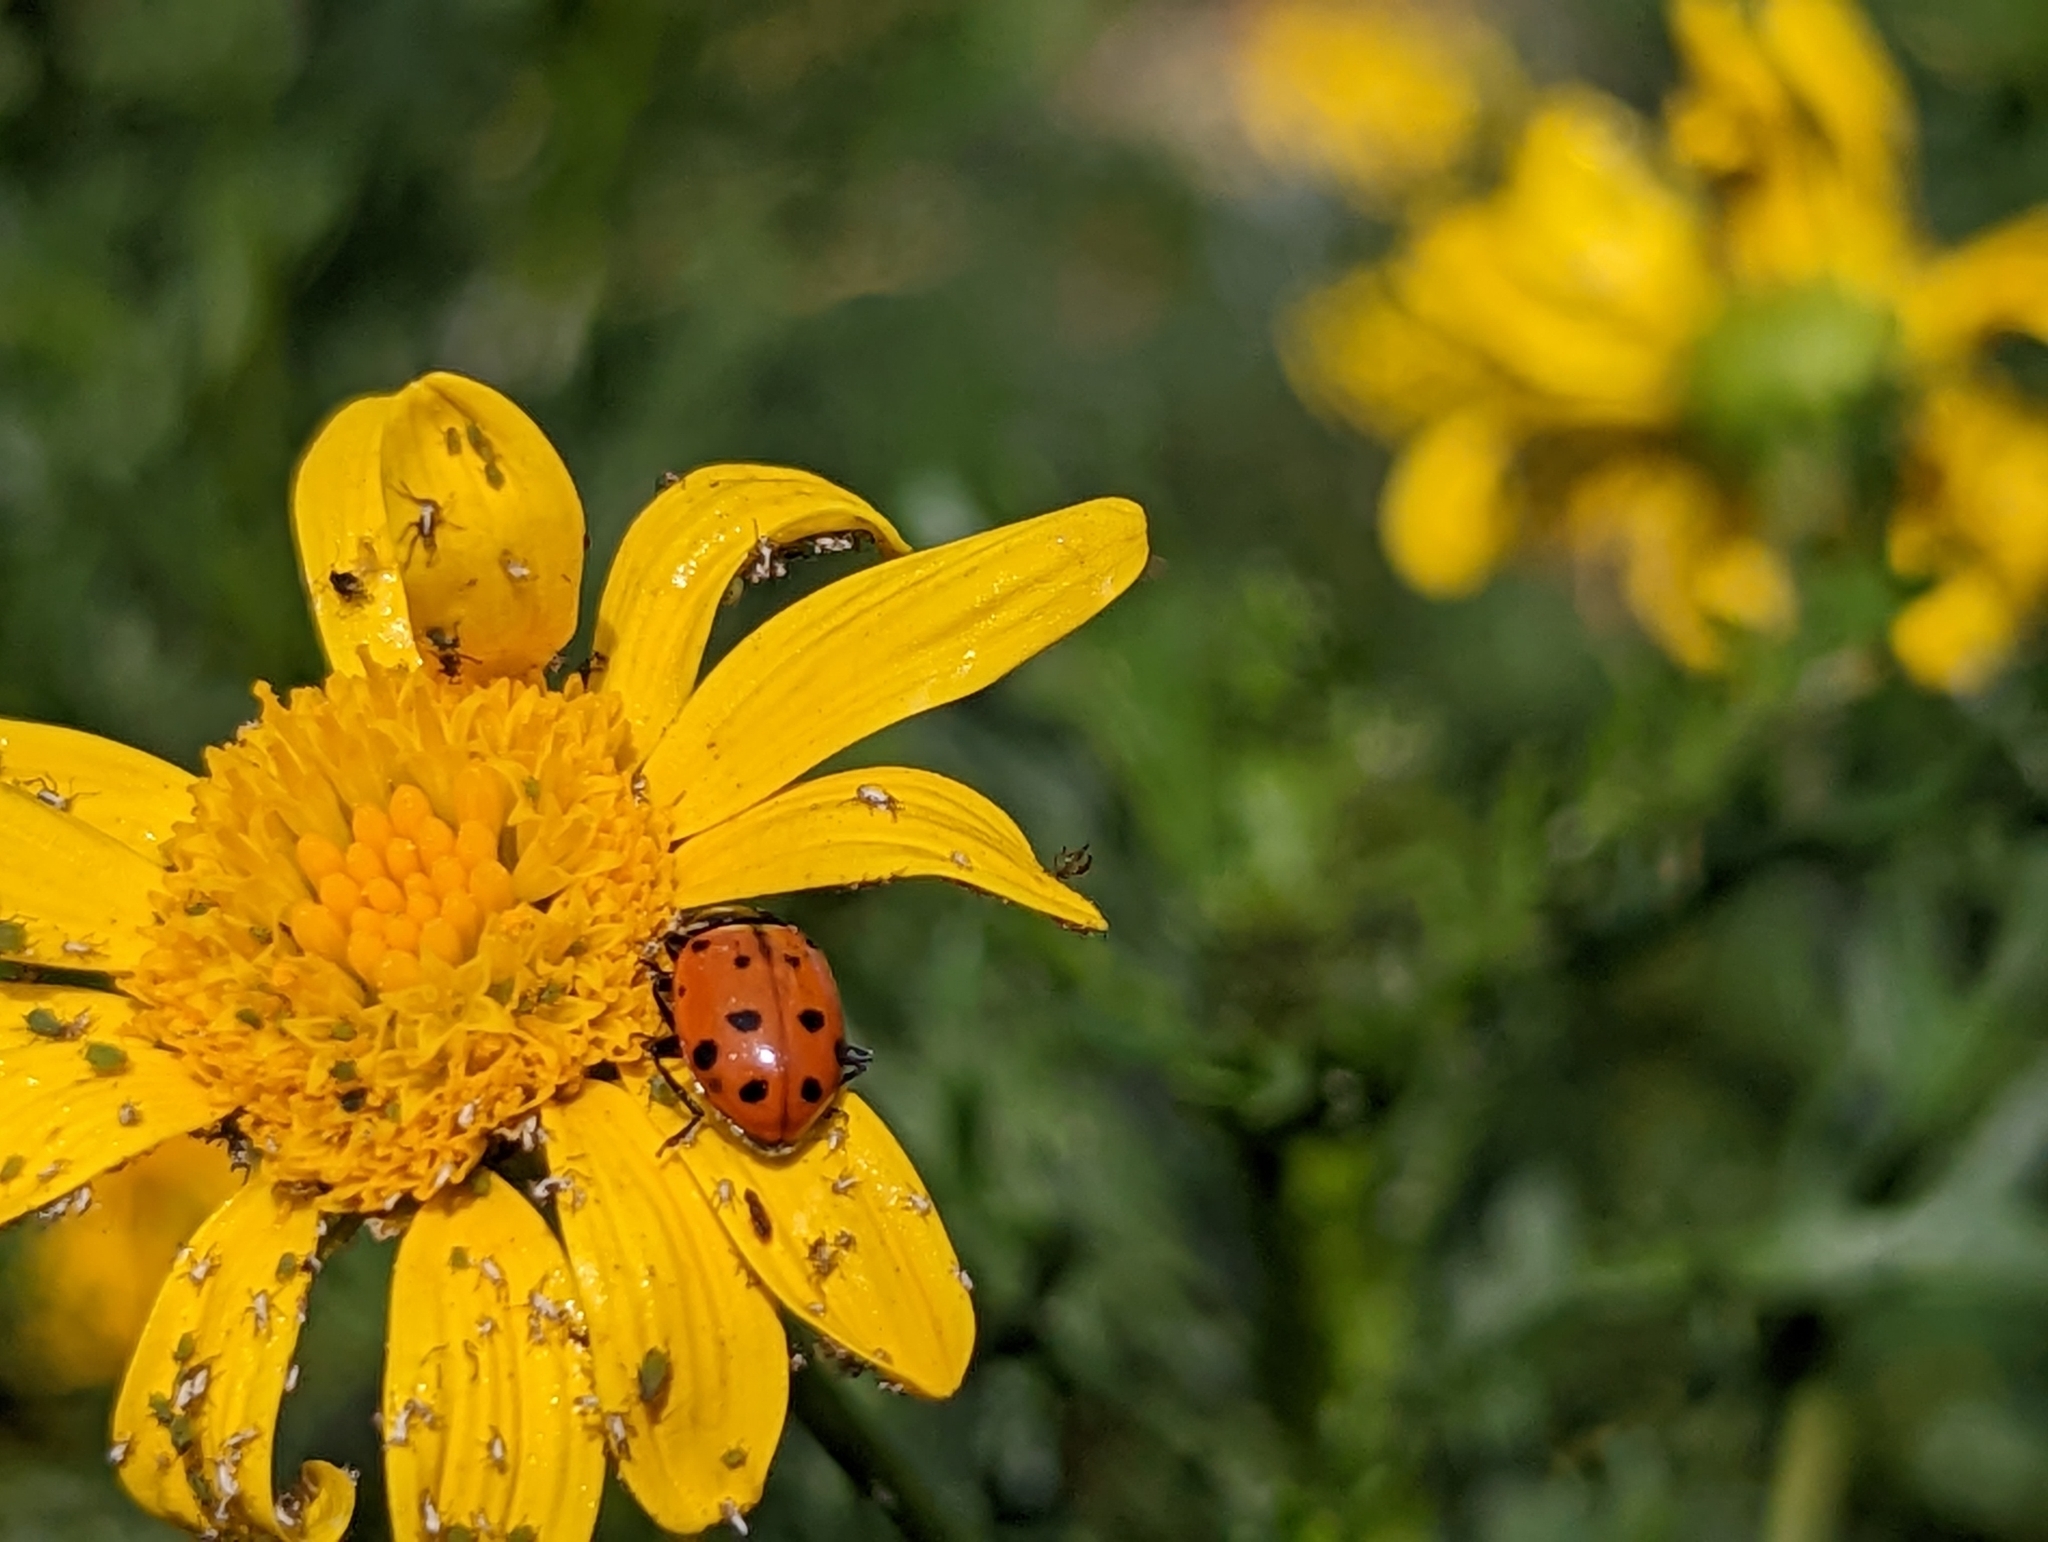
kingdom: Animalia
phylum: Arthropoda
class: Insecta
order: Coleoptera
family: Coccinellidae
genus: Hippodamia
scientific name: Hippodamia convergens
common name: Convergent lady beetle
